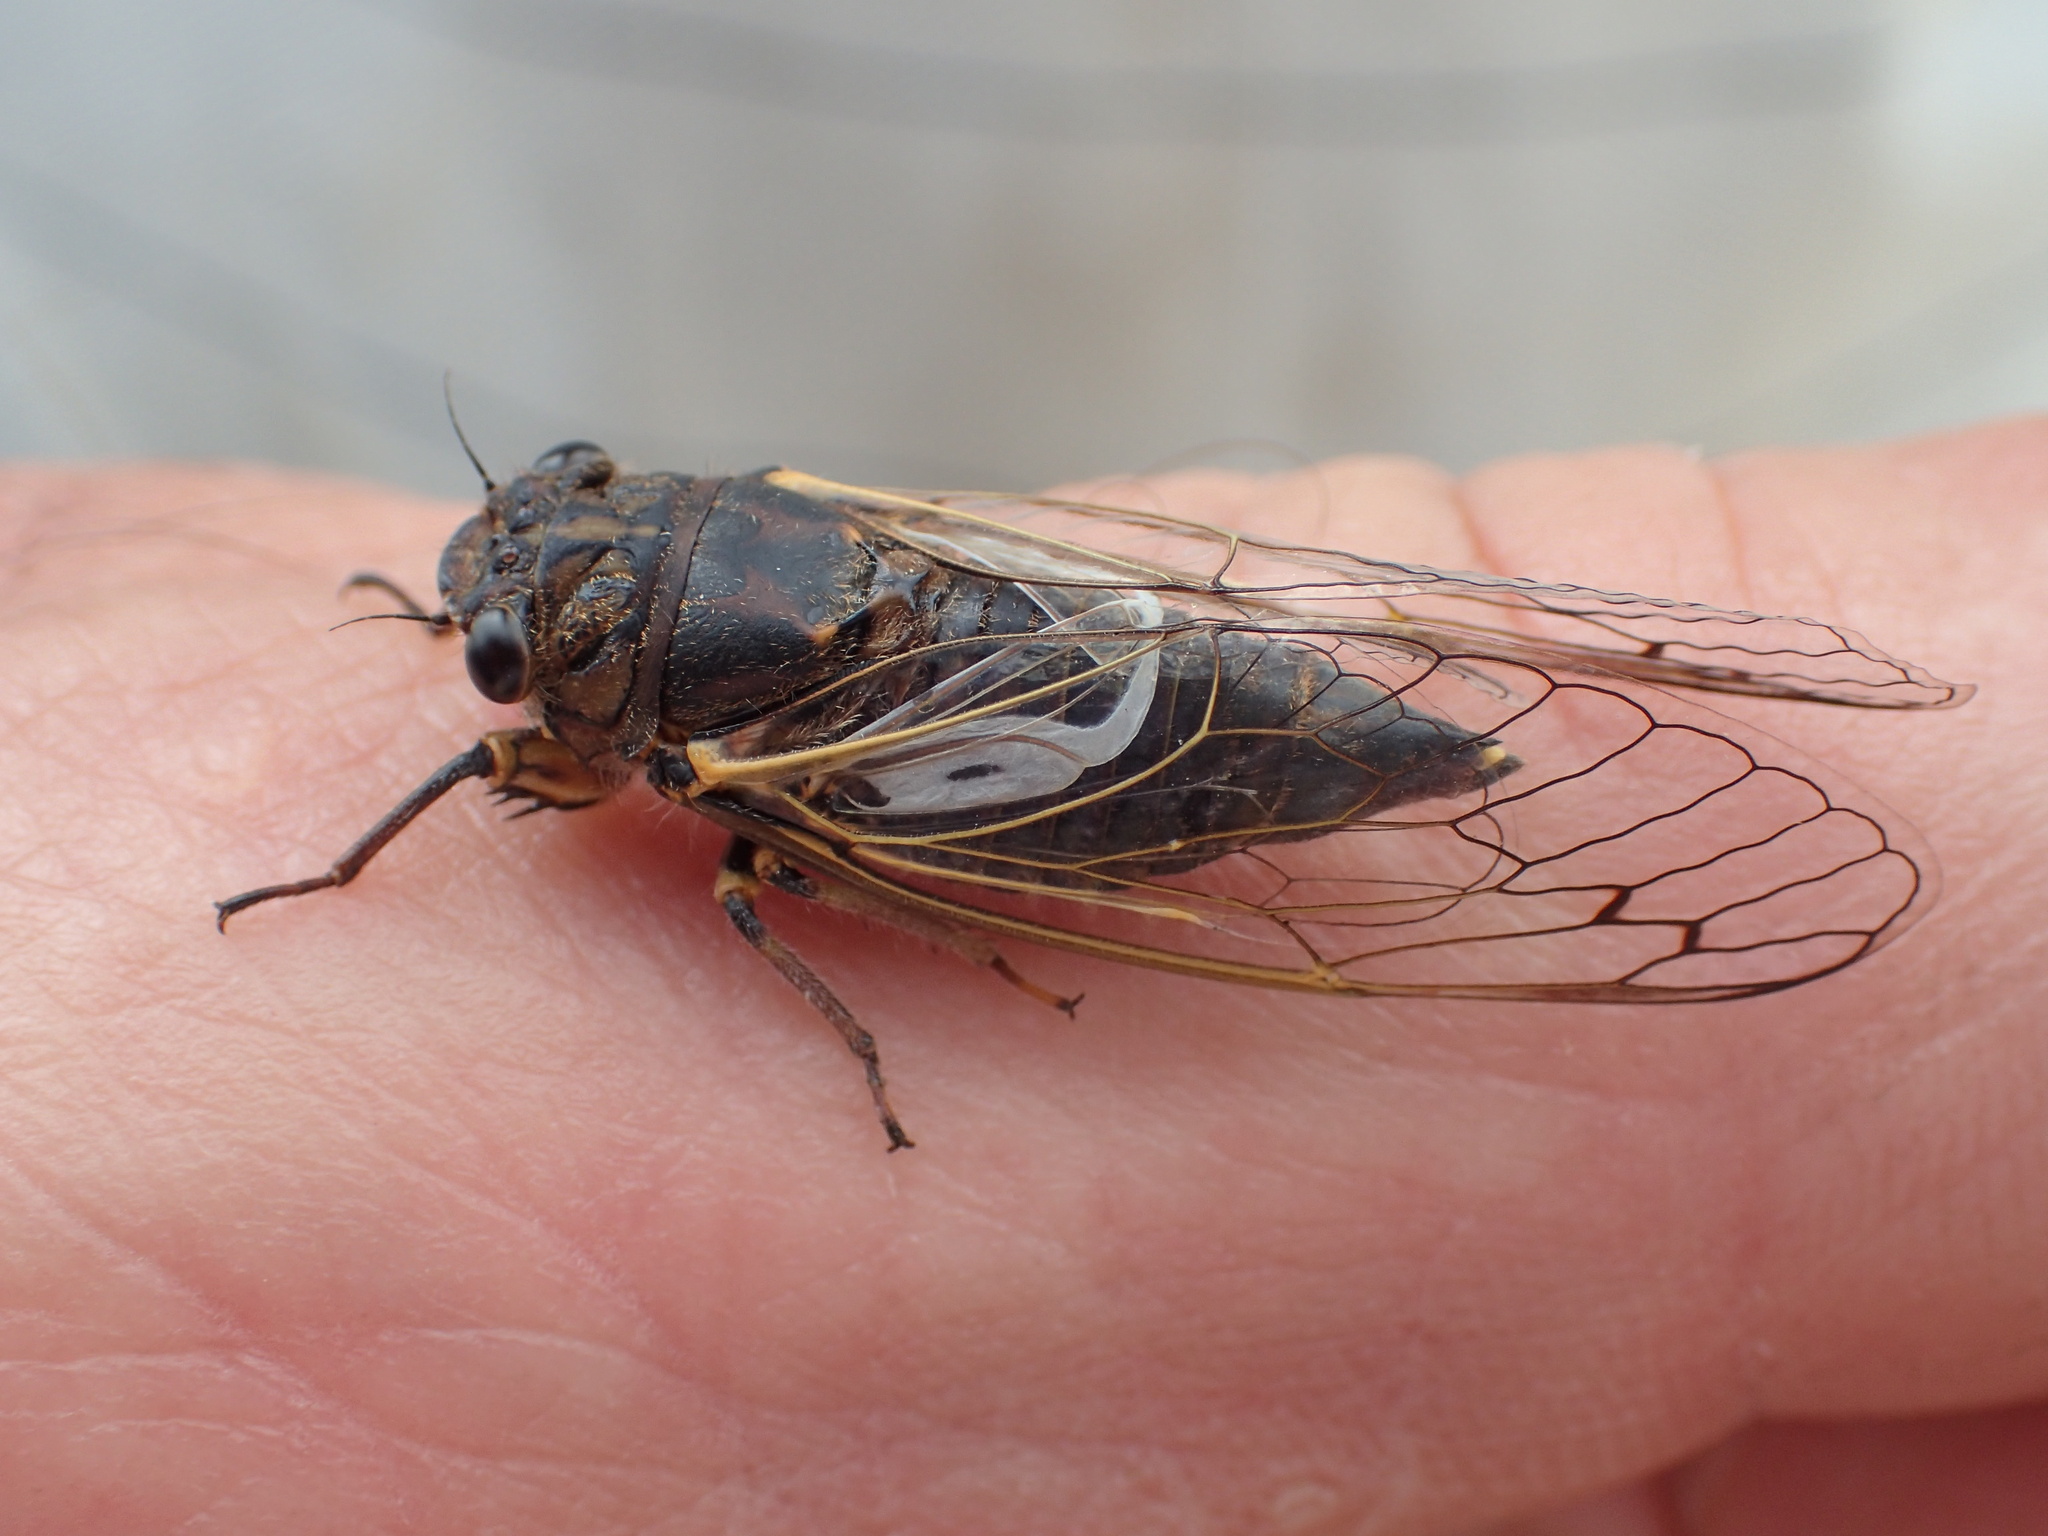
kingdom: Animalia
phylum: Arthropoda
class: Insecta
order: Hemiptera
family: Cicadidae
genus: Gelidea
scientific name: Gelidea torrida
